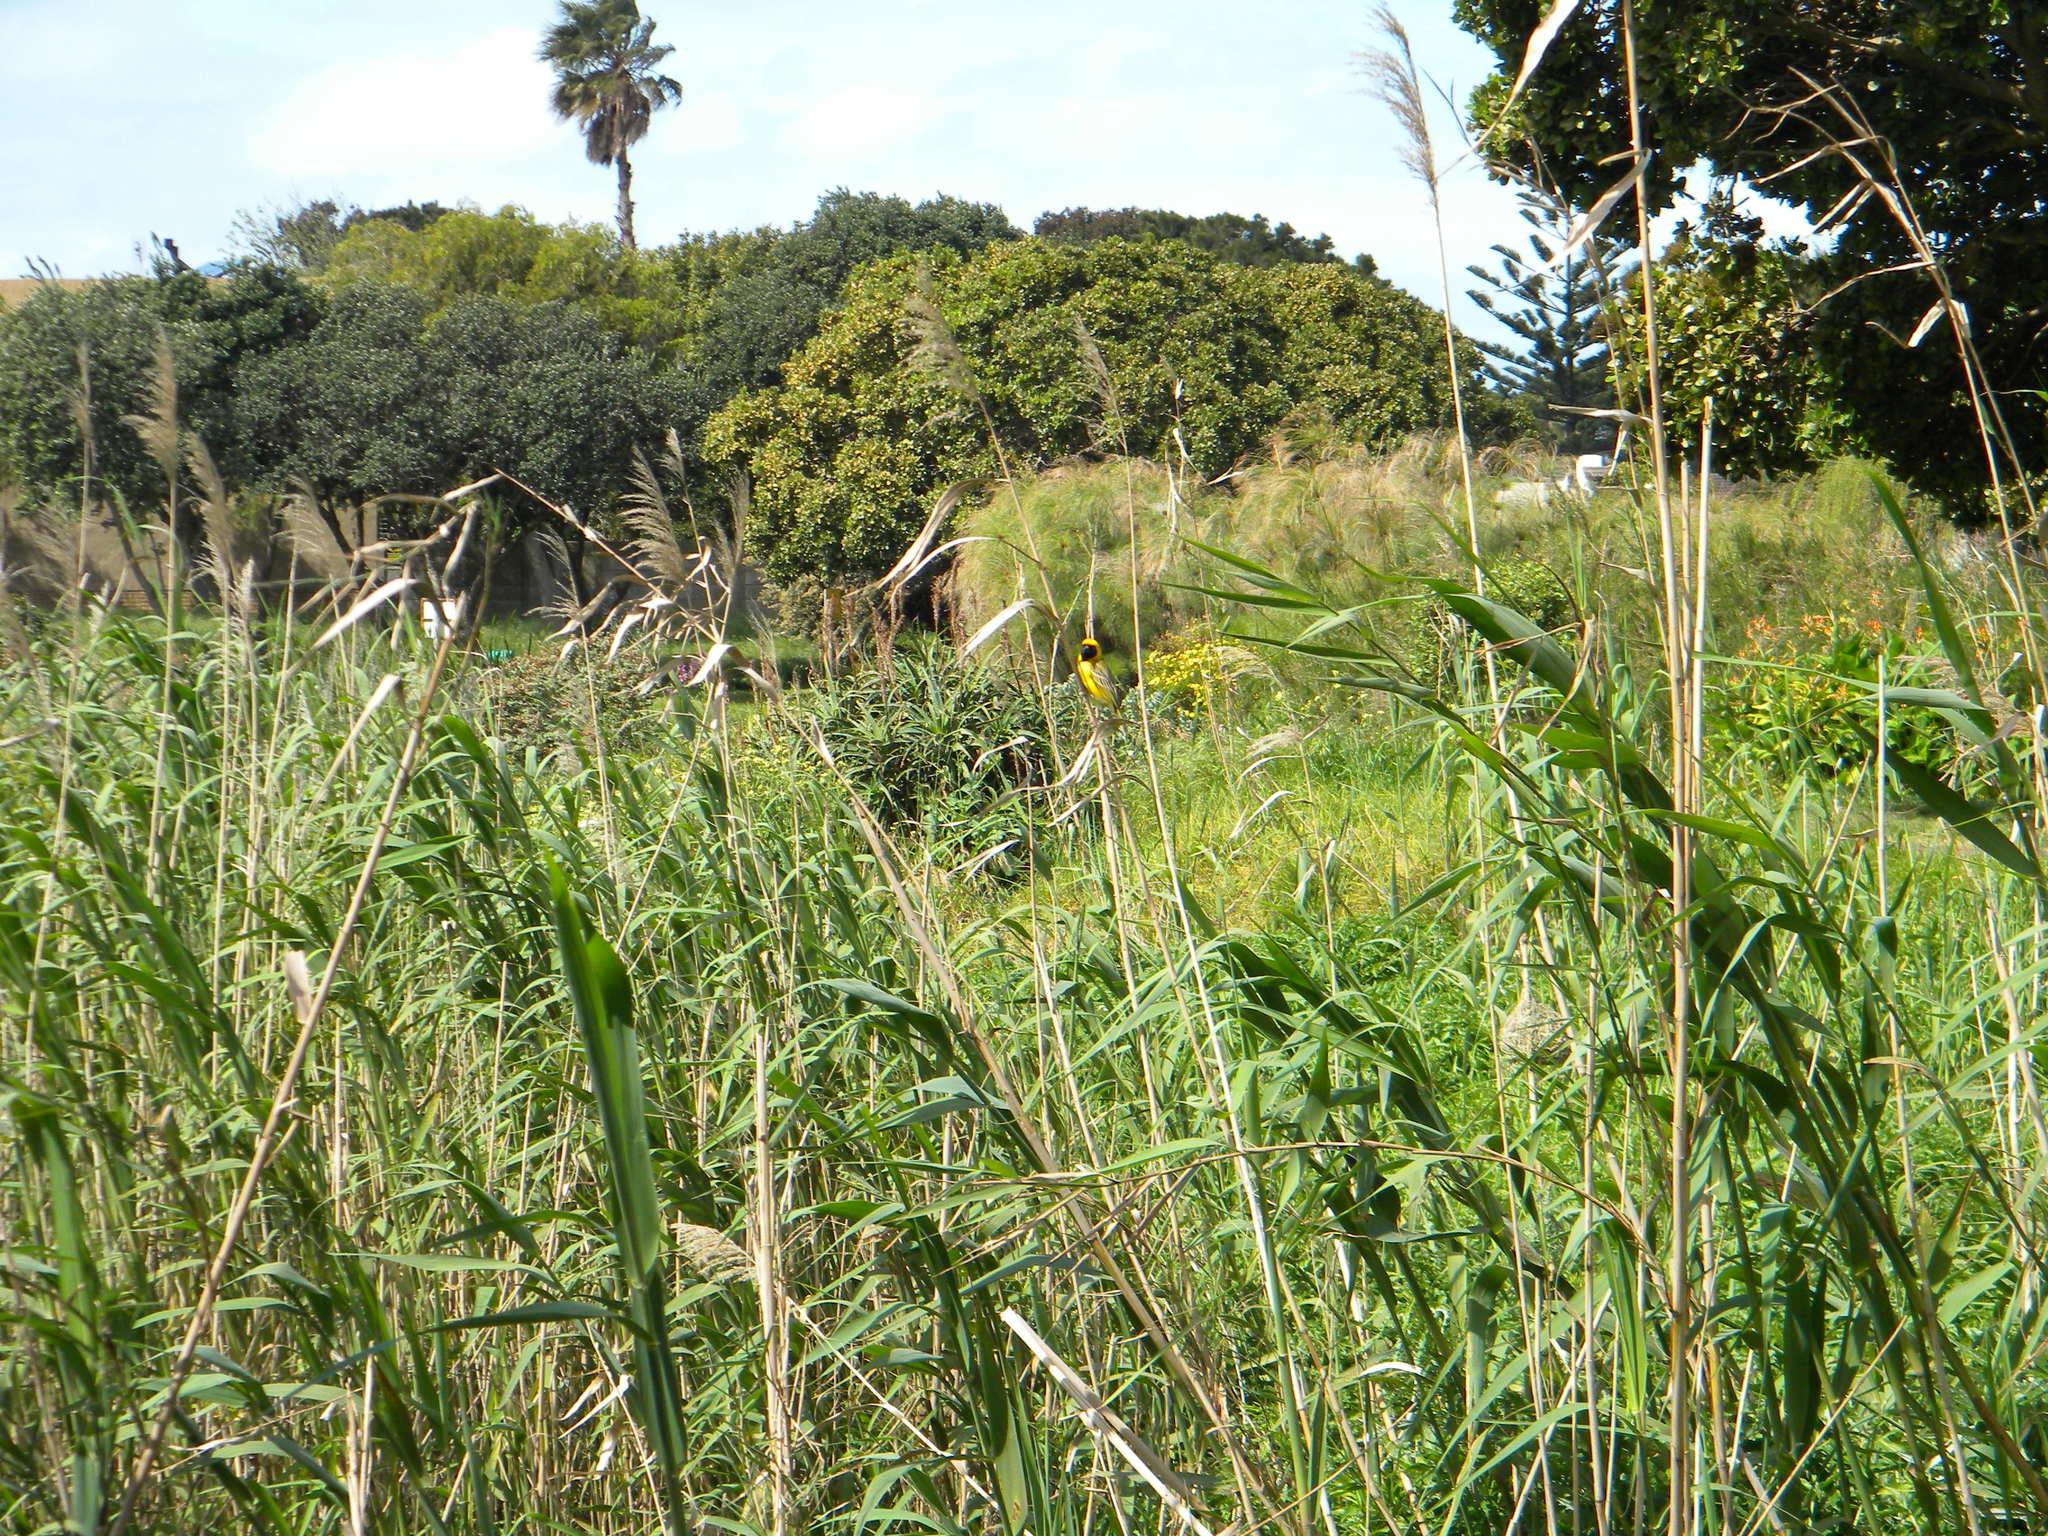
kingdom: Animalia
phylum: Chordata
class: Aves
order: Passeriformes
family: Ploceidae
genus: Ploceus
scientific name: Ploceus velatus
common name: Southern masked weaver
